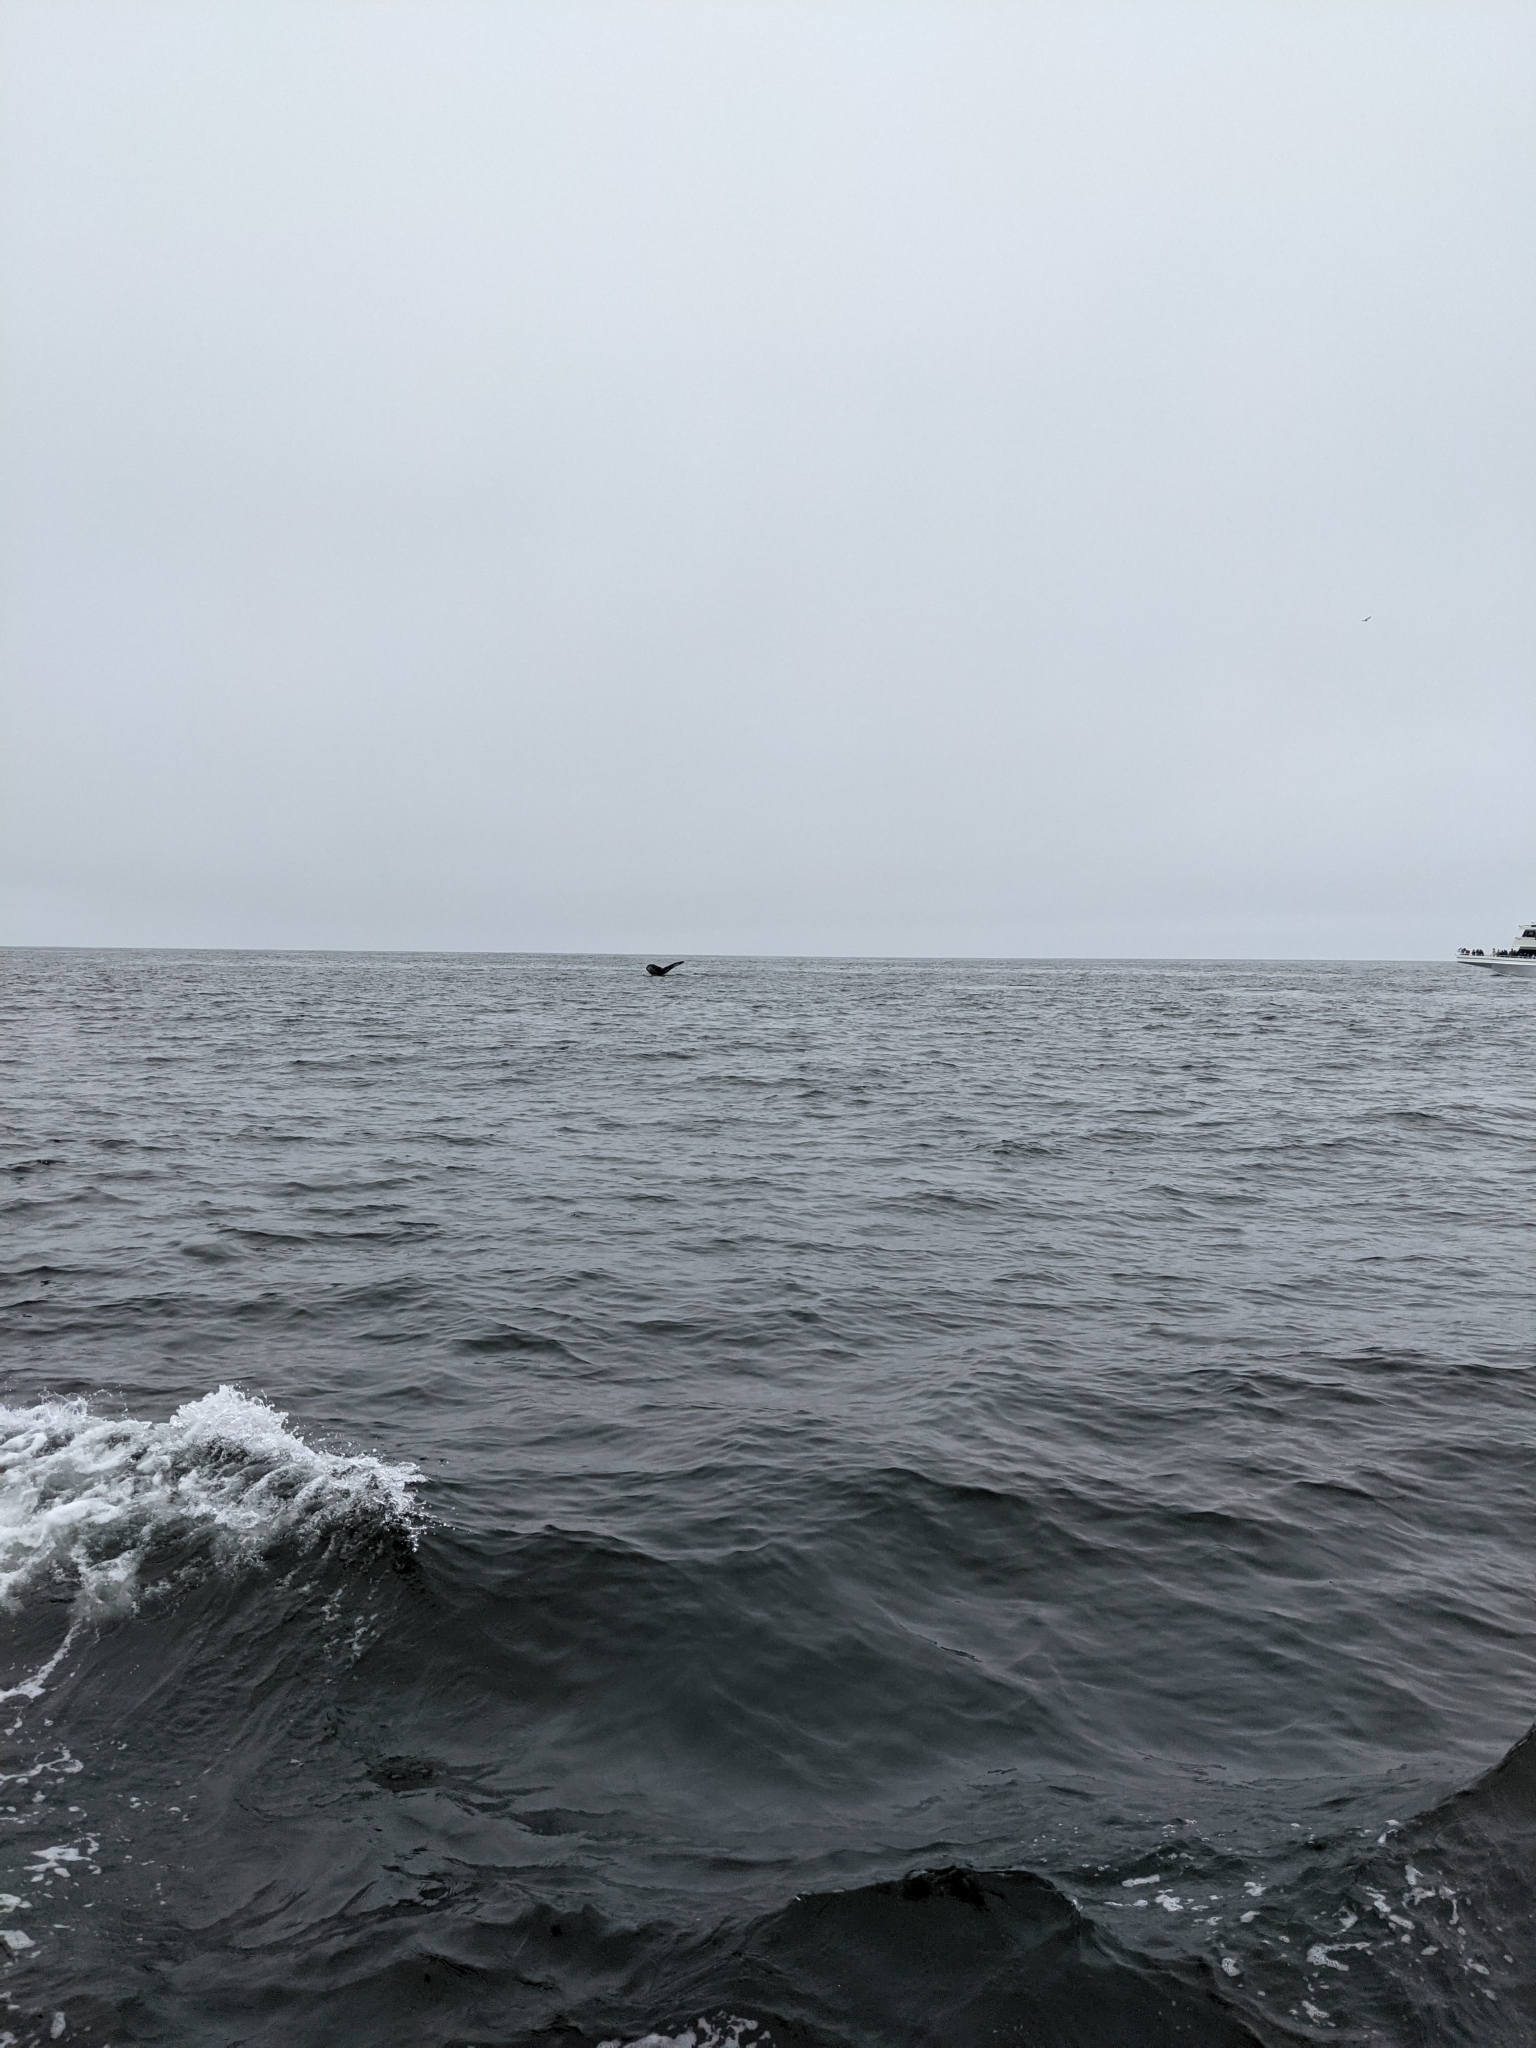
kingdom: Animalia
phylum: Chordata
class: Mammalia
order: Cetacea
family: Balaenopteridae
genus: Megaptera
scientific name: Megaptera novaeangliae
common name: Humpback whale
